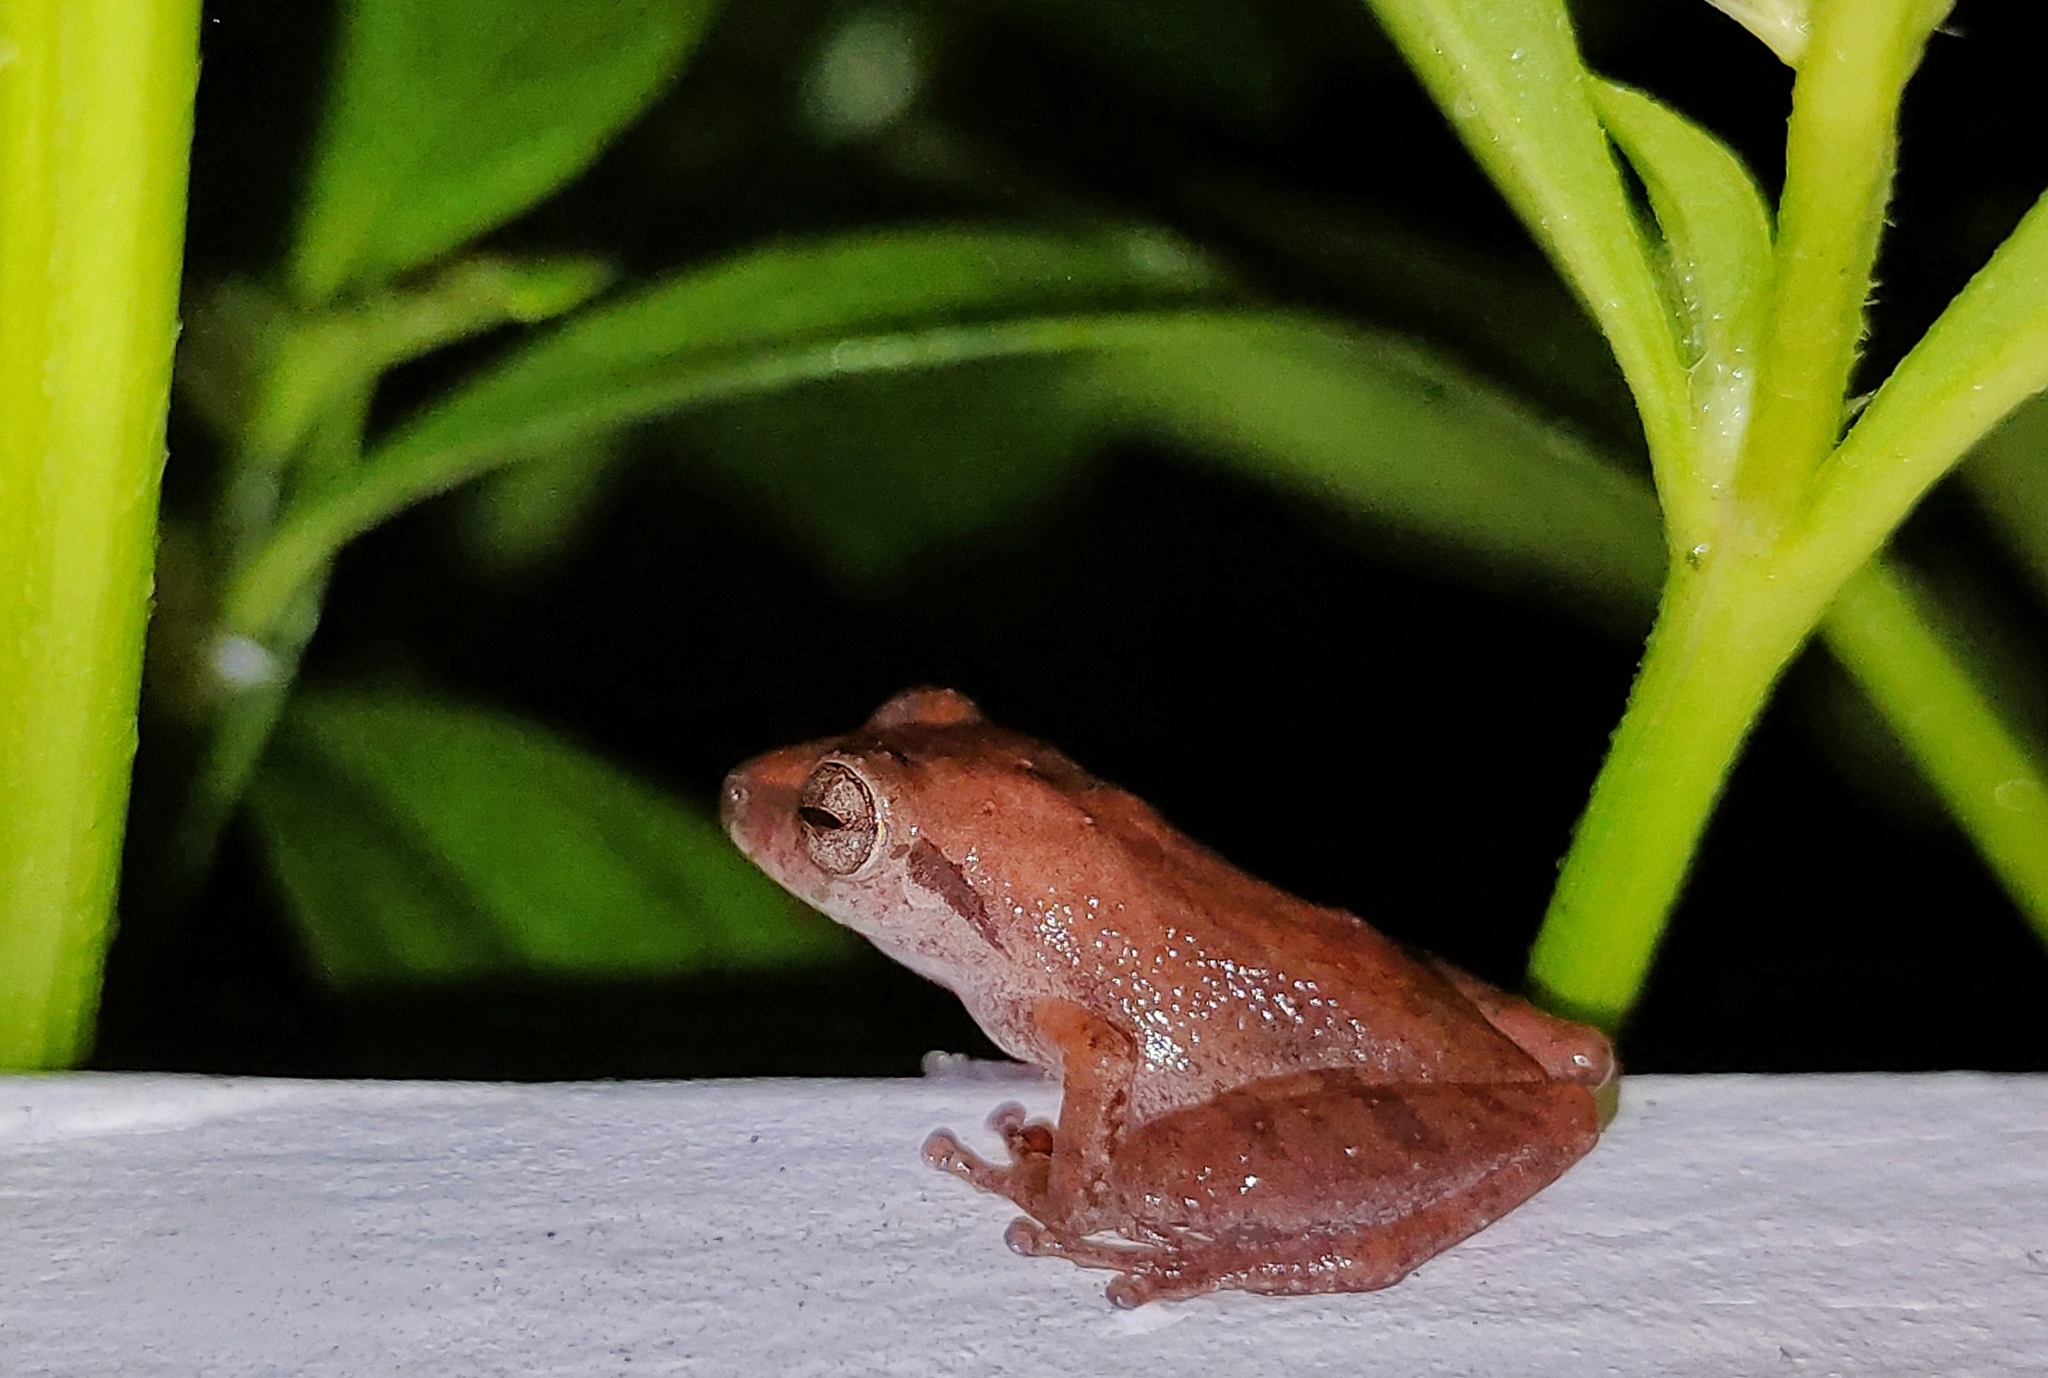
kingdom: Animalia
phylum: Chordata
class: Amphibia
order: Anura
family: Rhacophoridae
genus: Pseudophilautus
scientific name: Pseudophilautus wynaadensis
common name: Dark-eared bush frog
